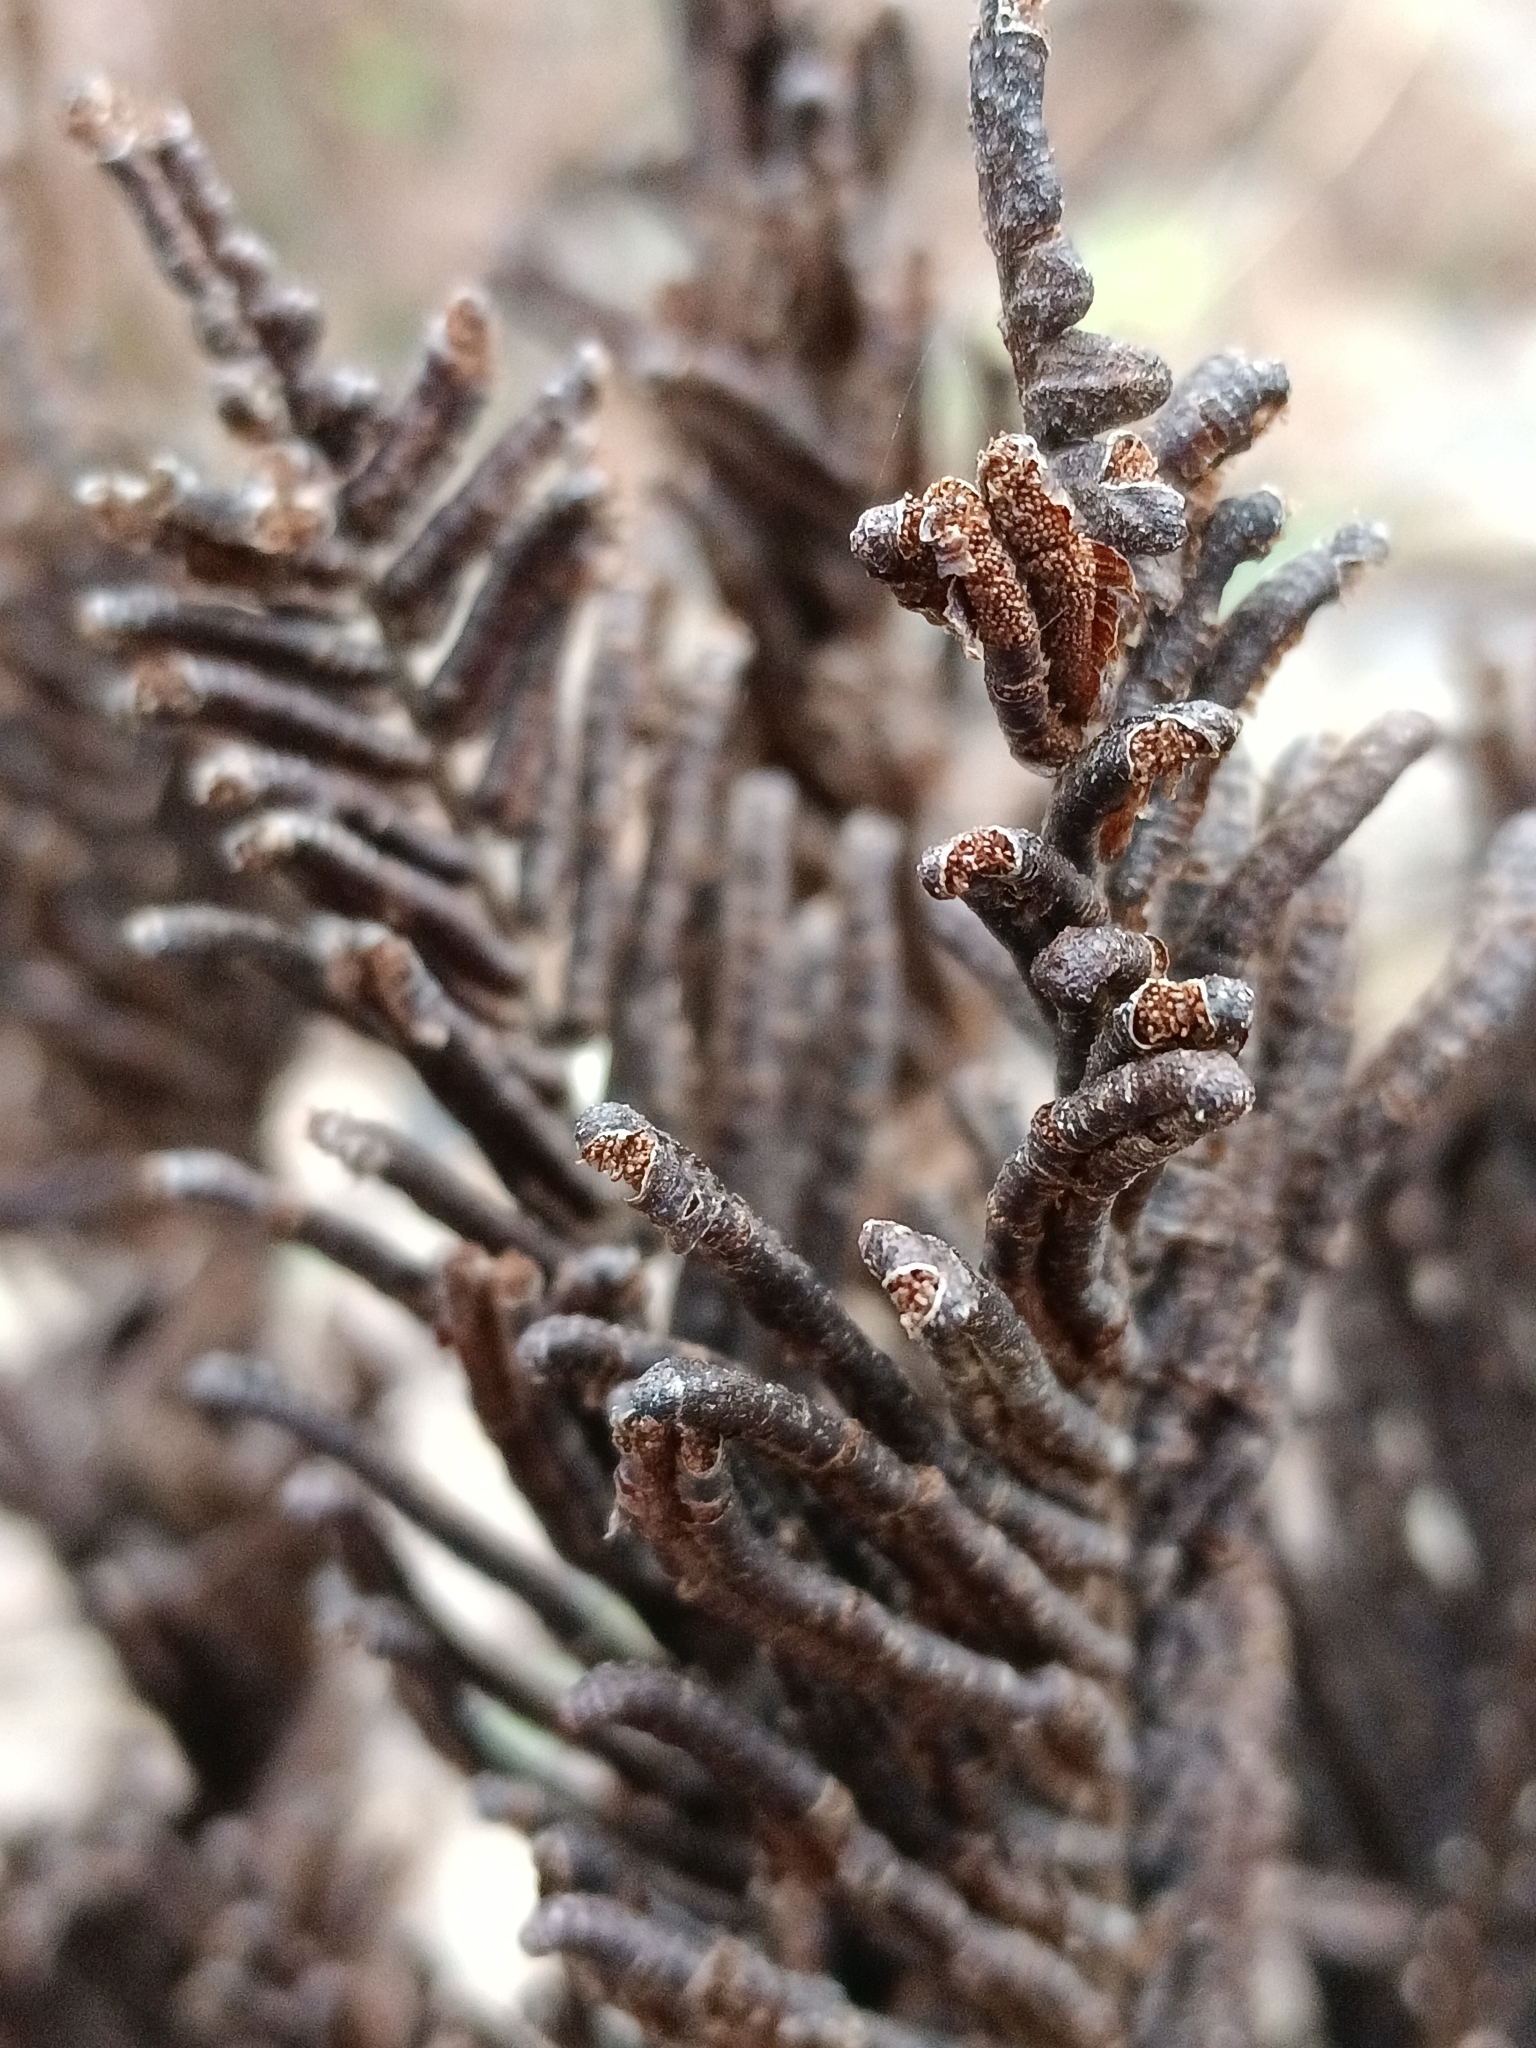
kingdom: Plantae
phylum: Tracheophyta
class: Polypodiopsida
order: Polypodiales
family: Onocleaceae
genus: Matteuccia
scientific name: Matteuccia struthiopteris
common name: Ostrich fern
